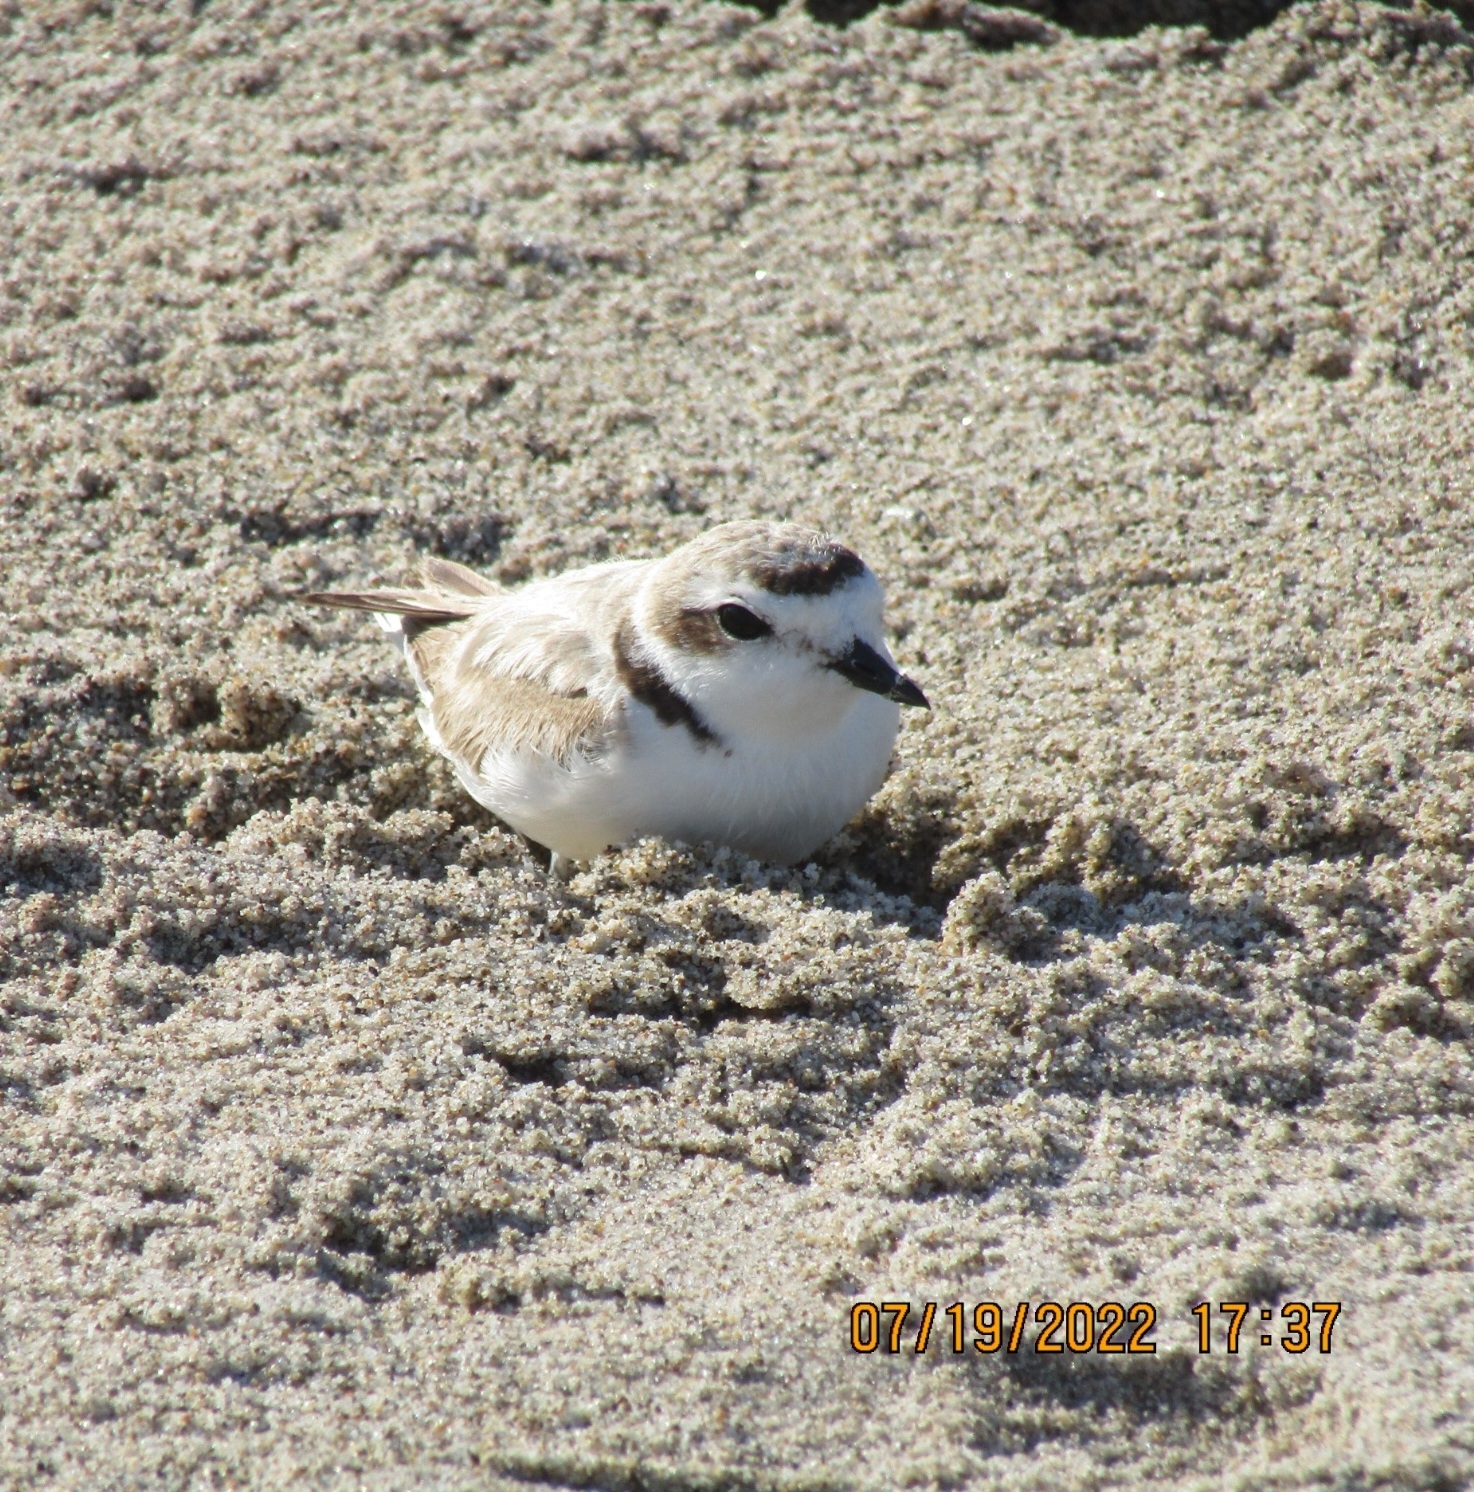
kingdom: Animalia
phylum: Chordata
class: Aves
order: Charadriiformes
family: Charadriidae
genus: Anarhynchus
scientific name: Anarhynchus
